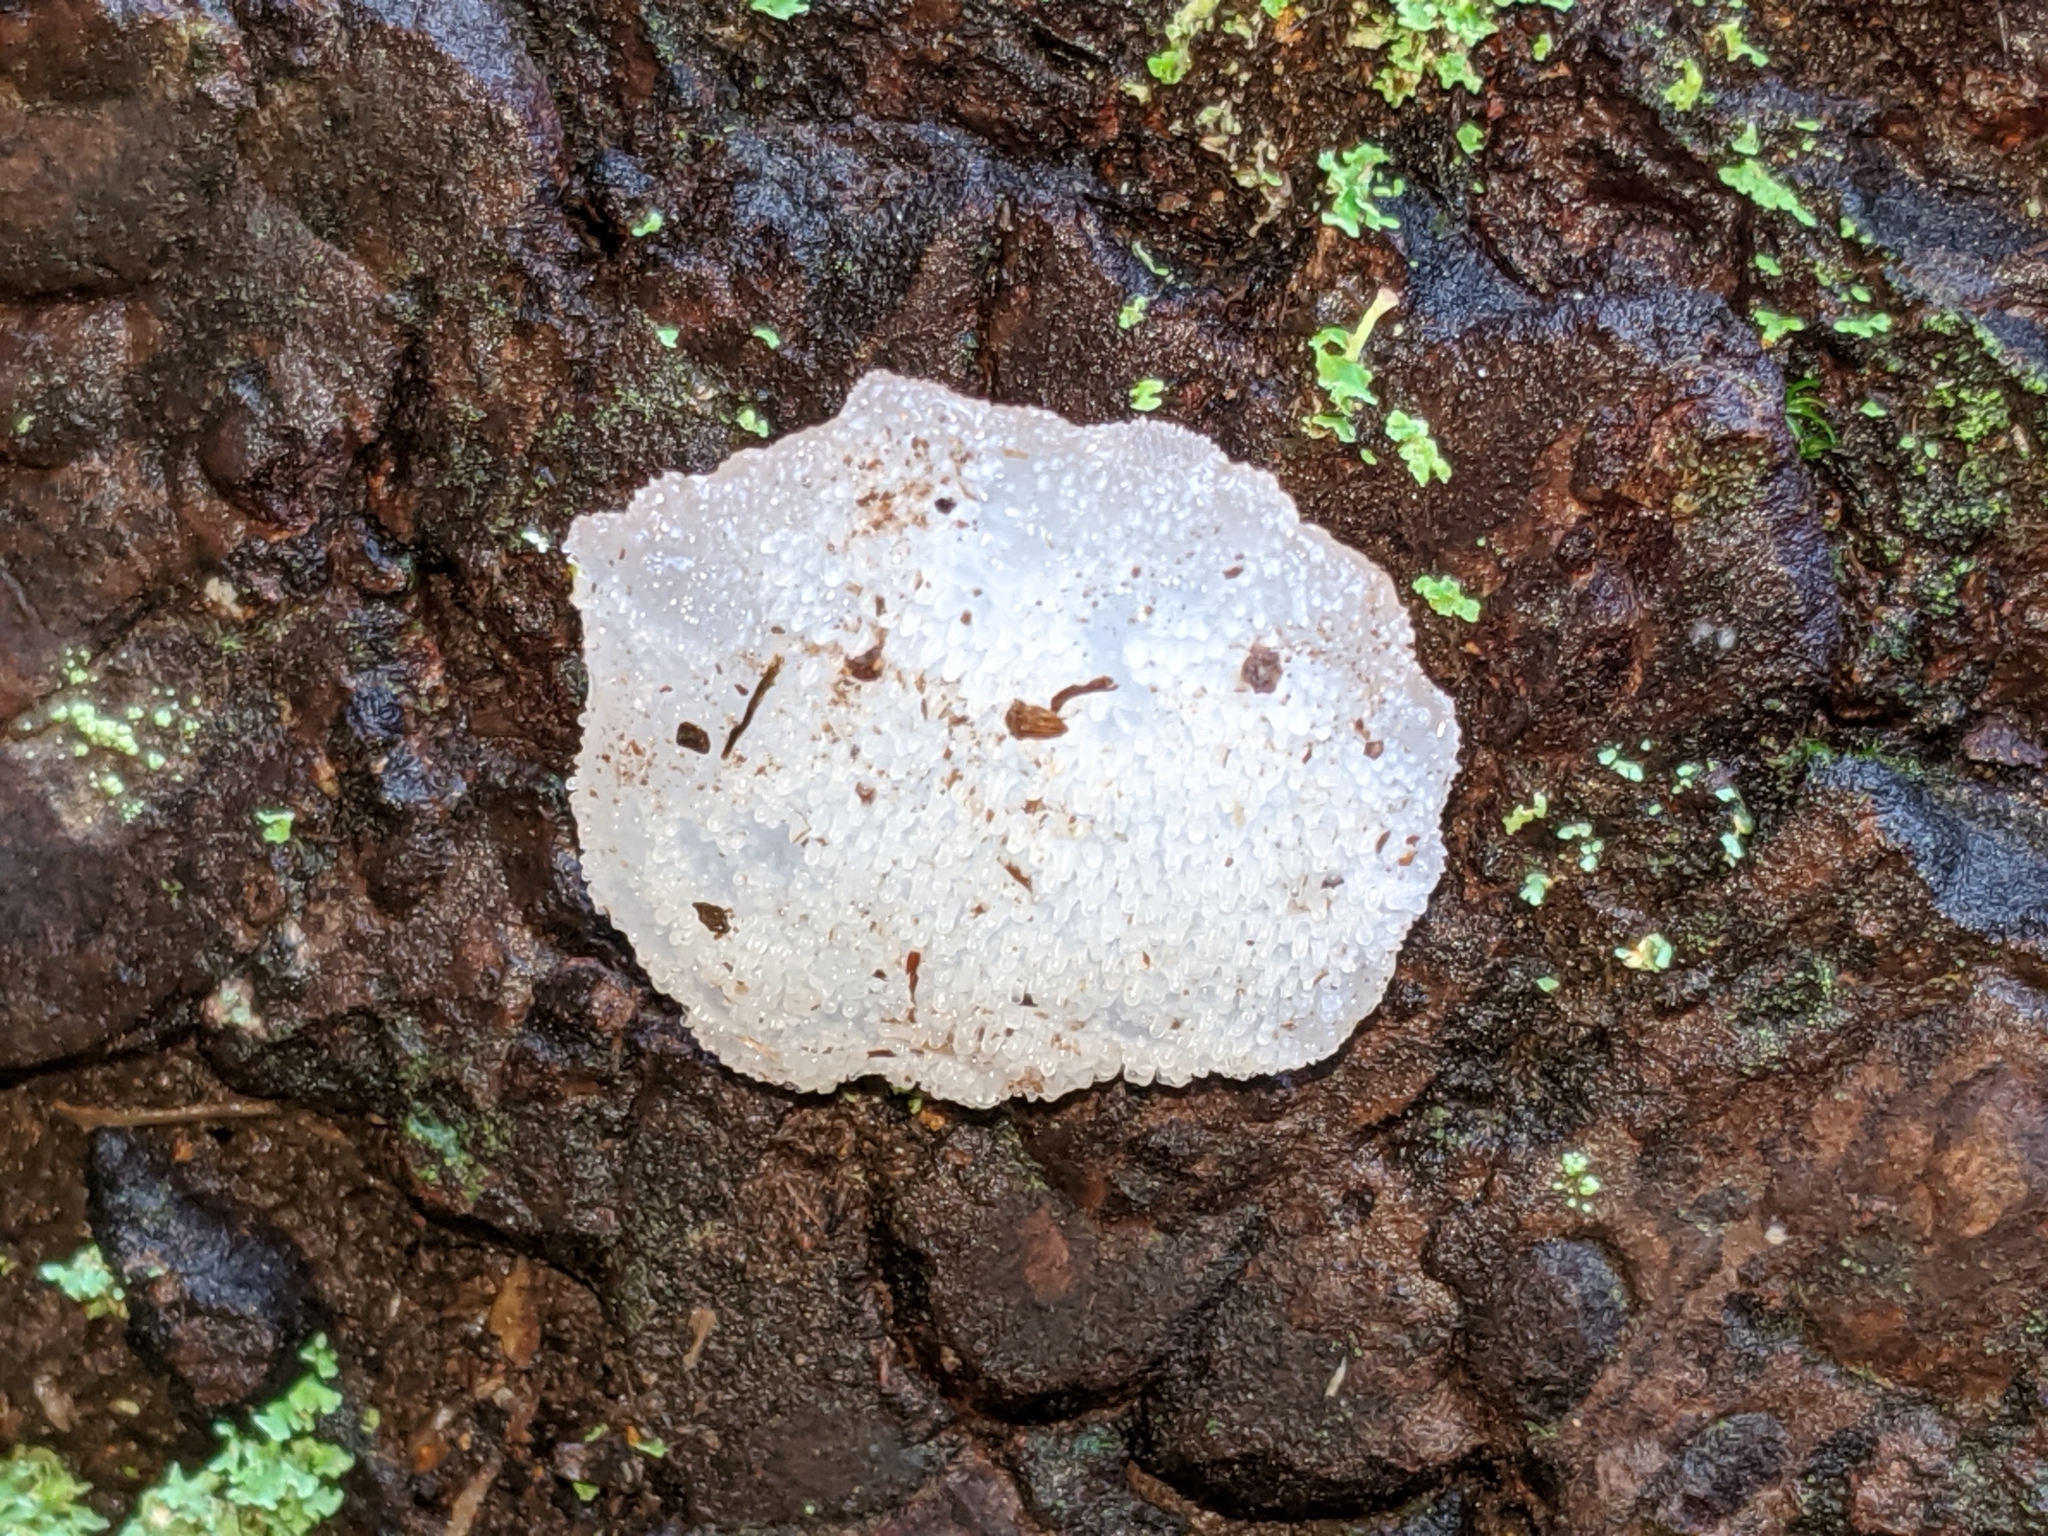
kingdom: Fungi
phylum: Basidiomycota
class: Agaricomycetes
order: Auriculariales
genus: Pseudohydnum
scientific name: Pseudohydnum gelatinosum
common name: Jelly tongue
